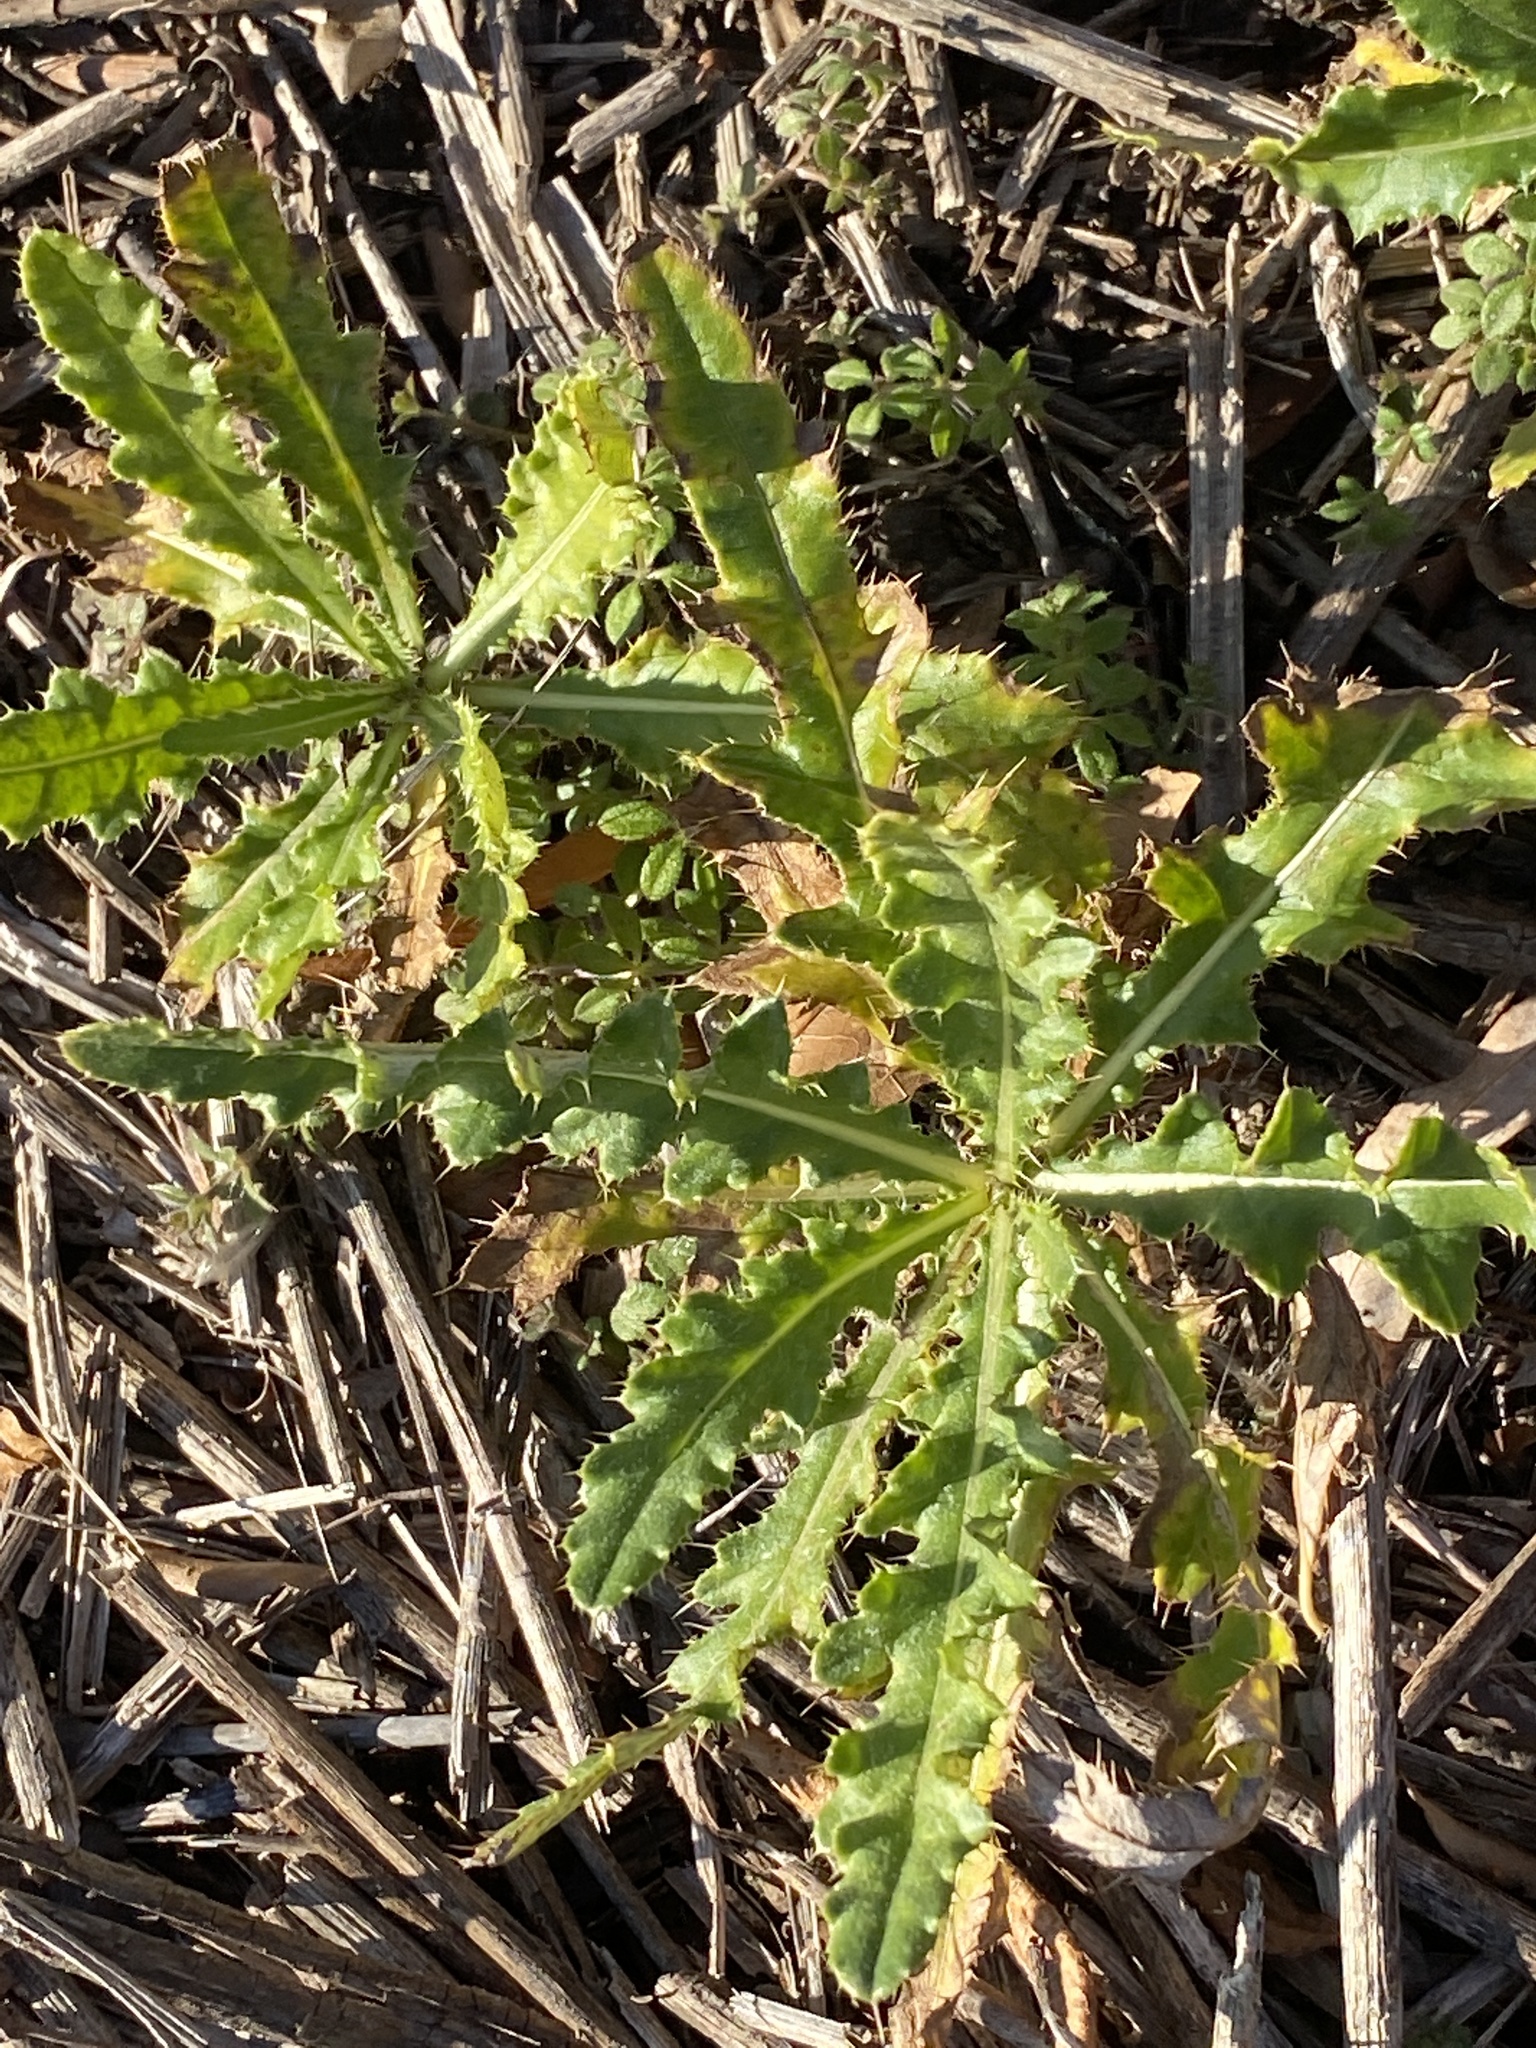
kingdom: Plantae
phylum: Tracheophyta
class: Magnoliopsida
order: Asterales
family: Asteraceae
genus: Cirsium
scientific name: Cirsium arvense
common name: Creeping thistle
